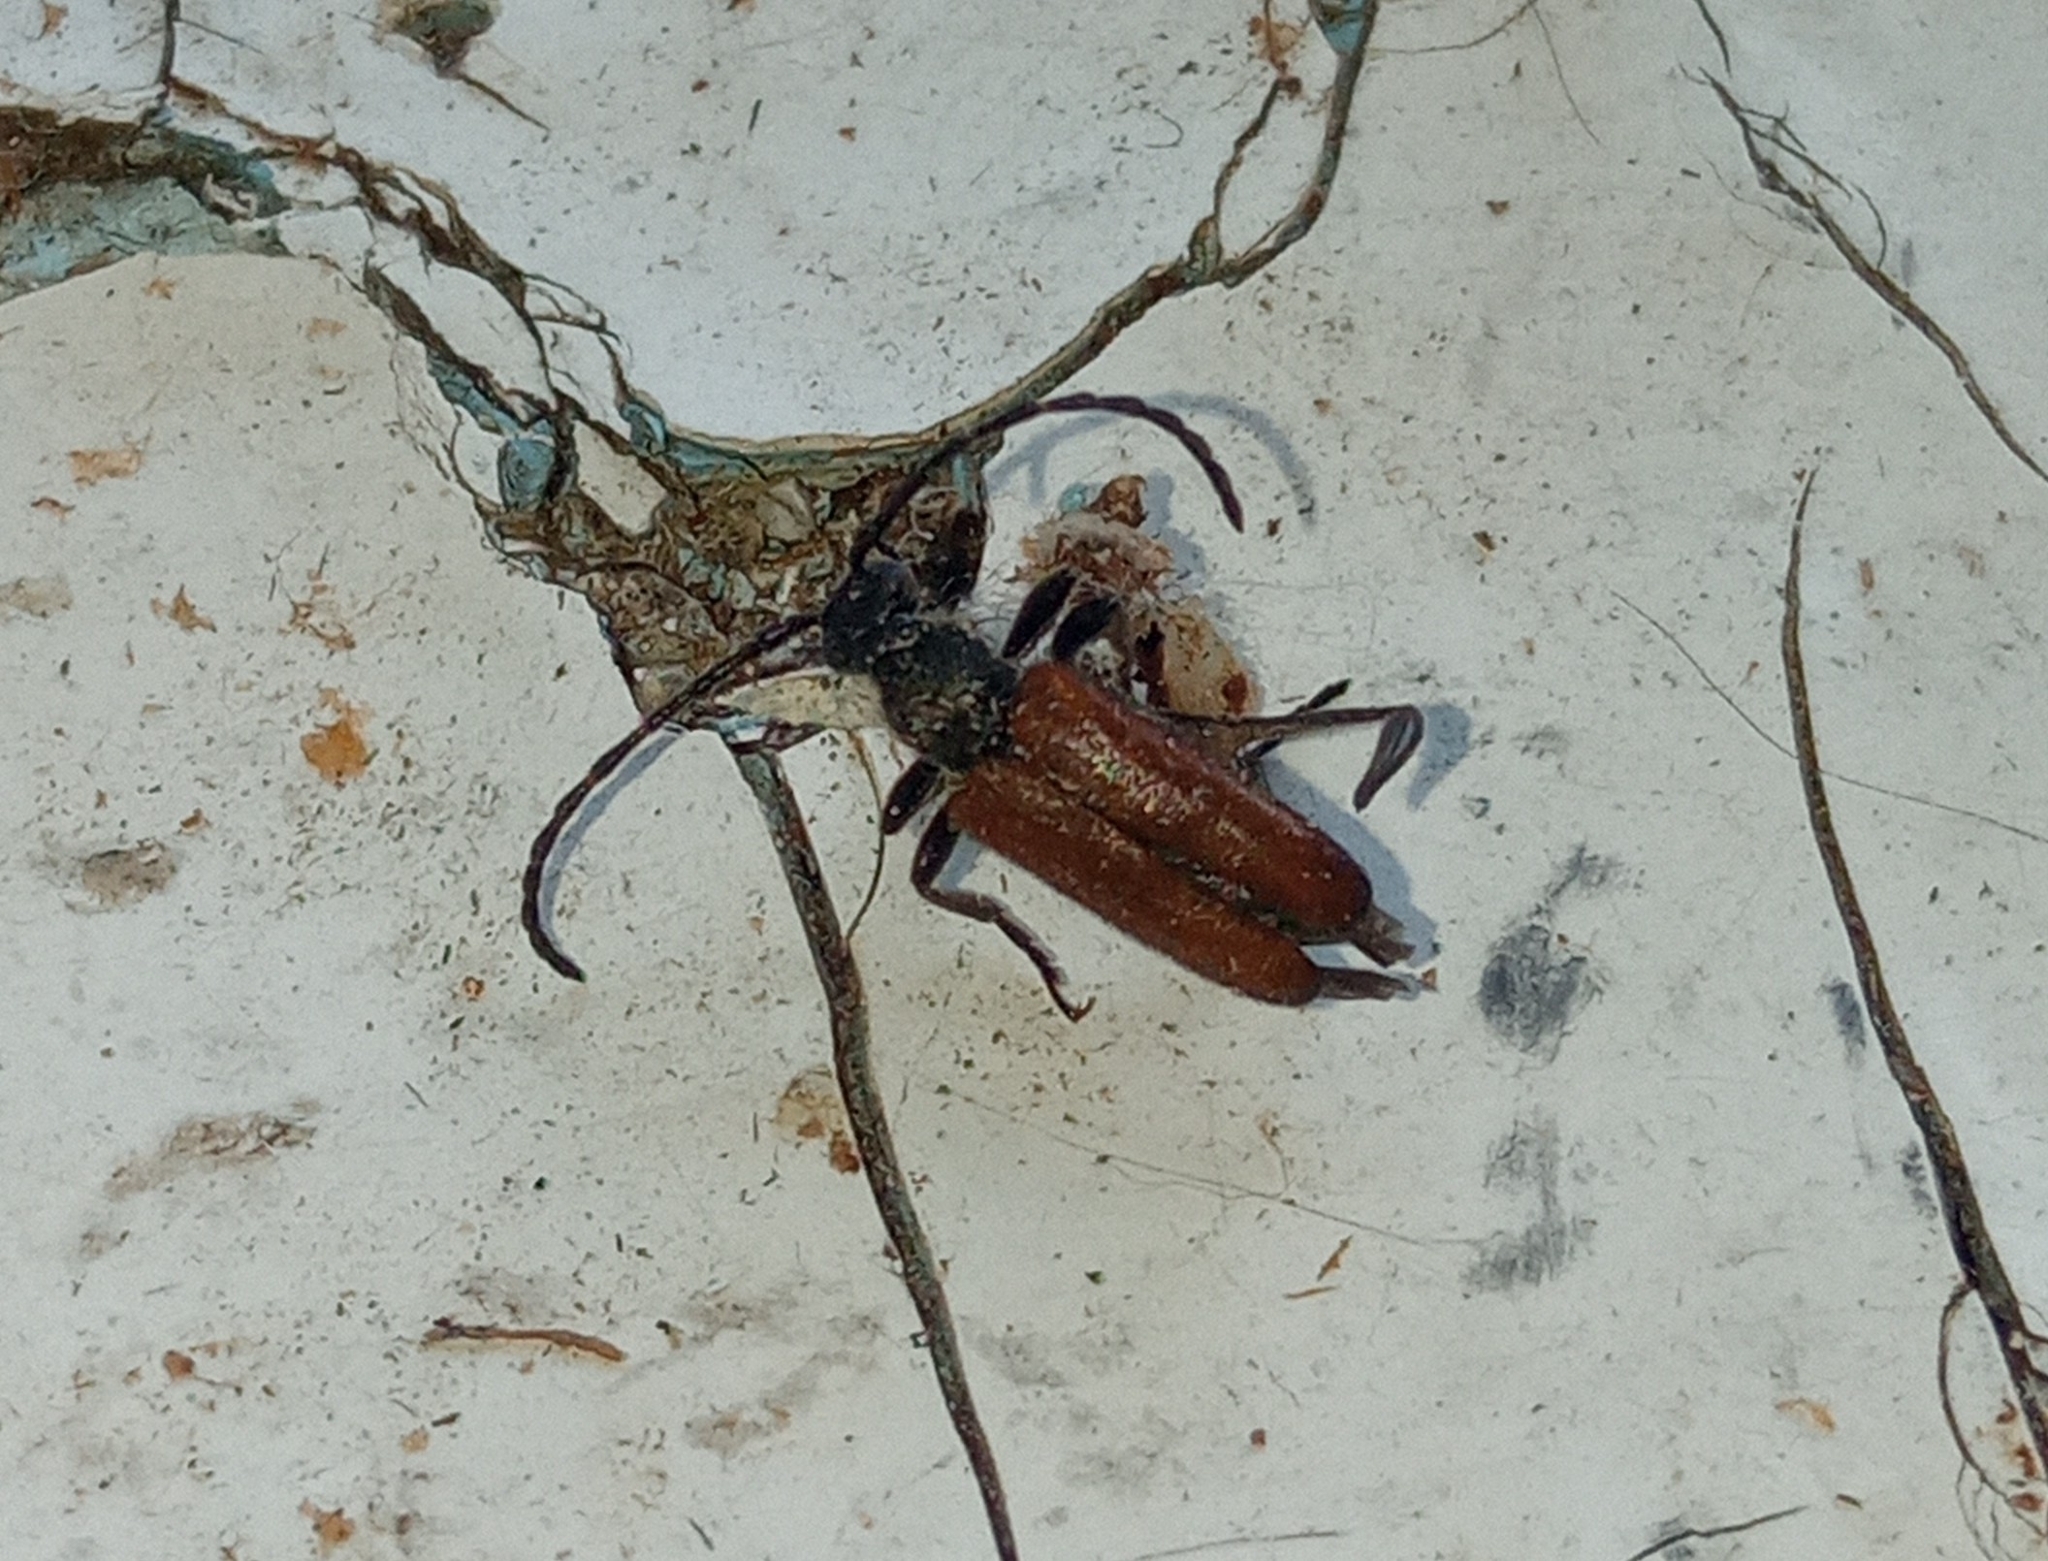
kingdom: Animalia
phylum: Arthropoda
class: Insecta
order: Coleoptera
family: Cerambycidae
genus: Paracorymbia
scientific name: Paracorymbia maculicornis
